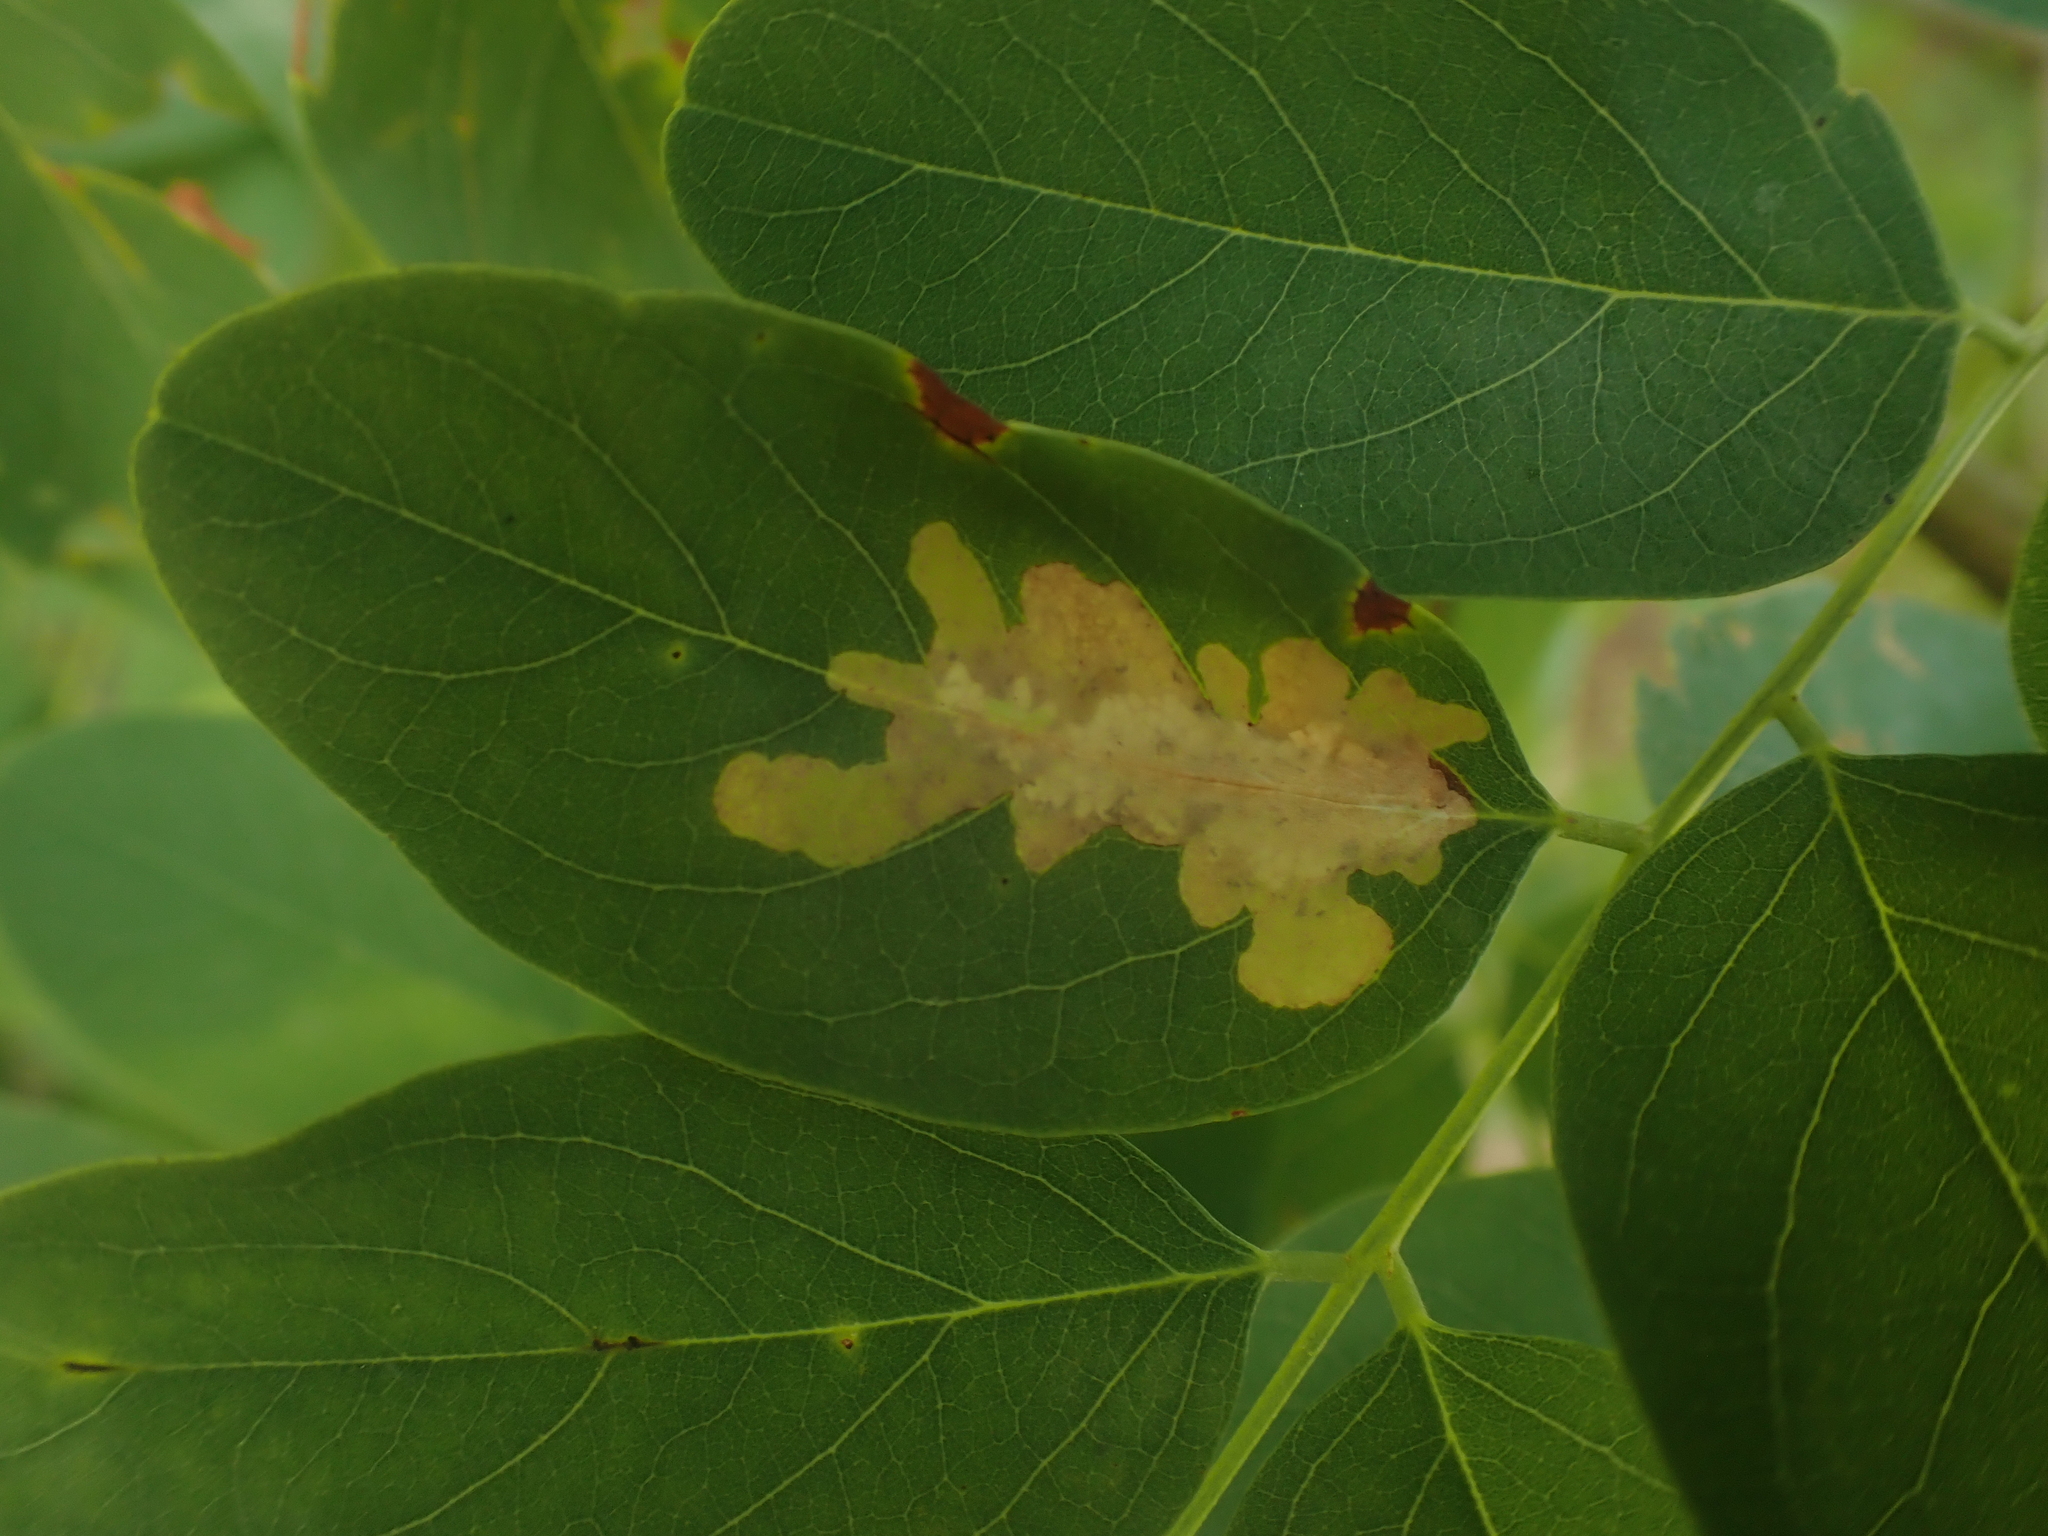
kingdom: Animalia
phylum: Arthropoda
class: Insecta
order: Lepidoptera
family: Gracillariidae
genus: Parectopa
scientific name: Parectopa robiniella
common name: Locust digitate leafminer
